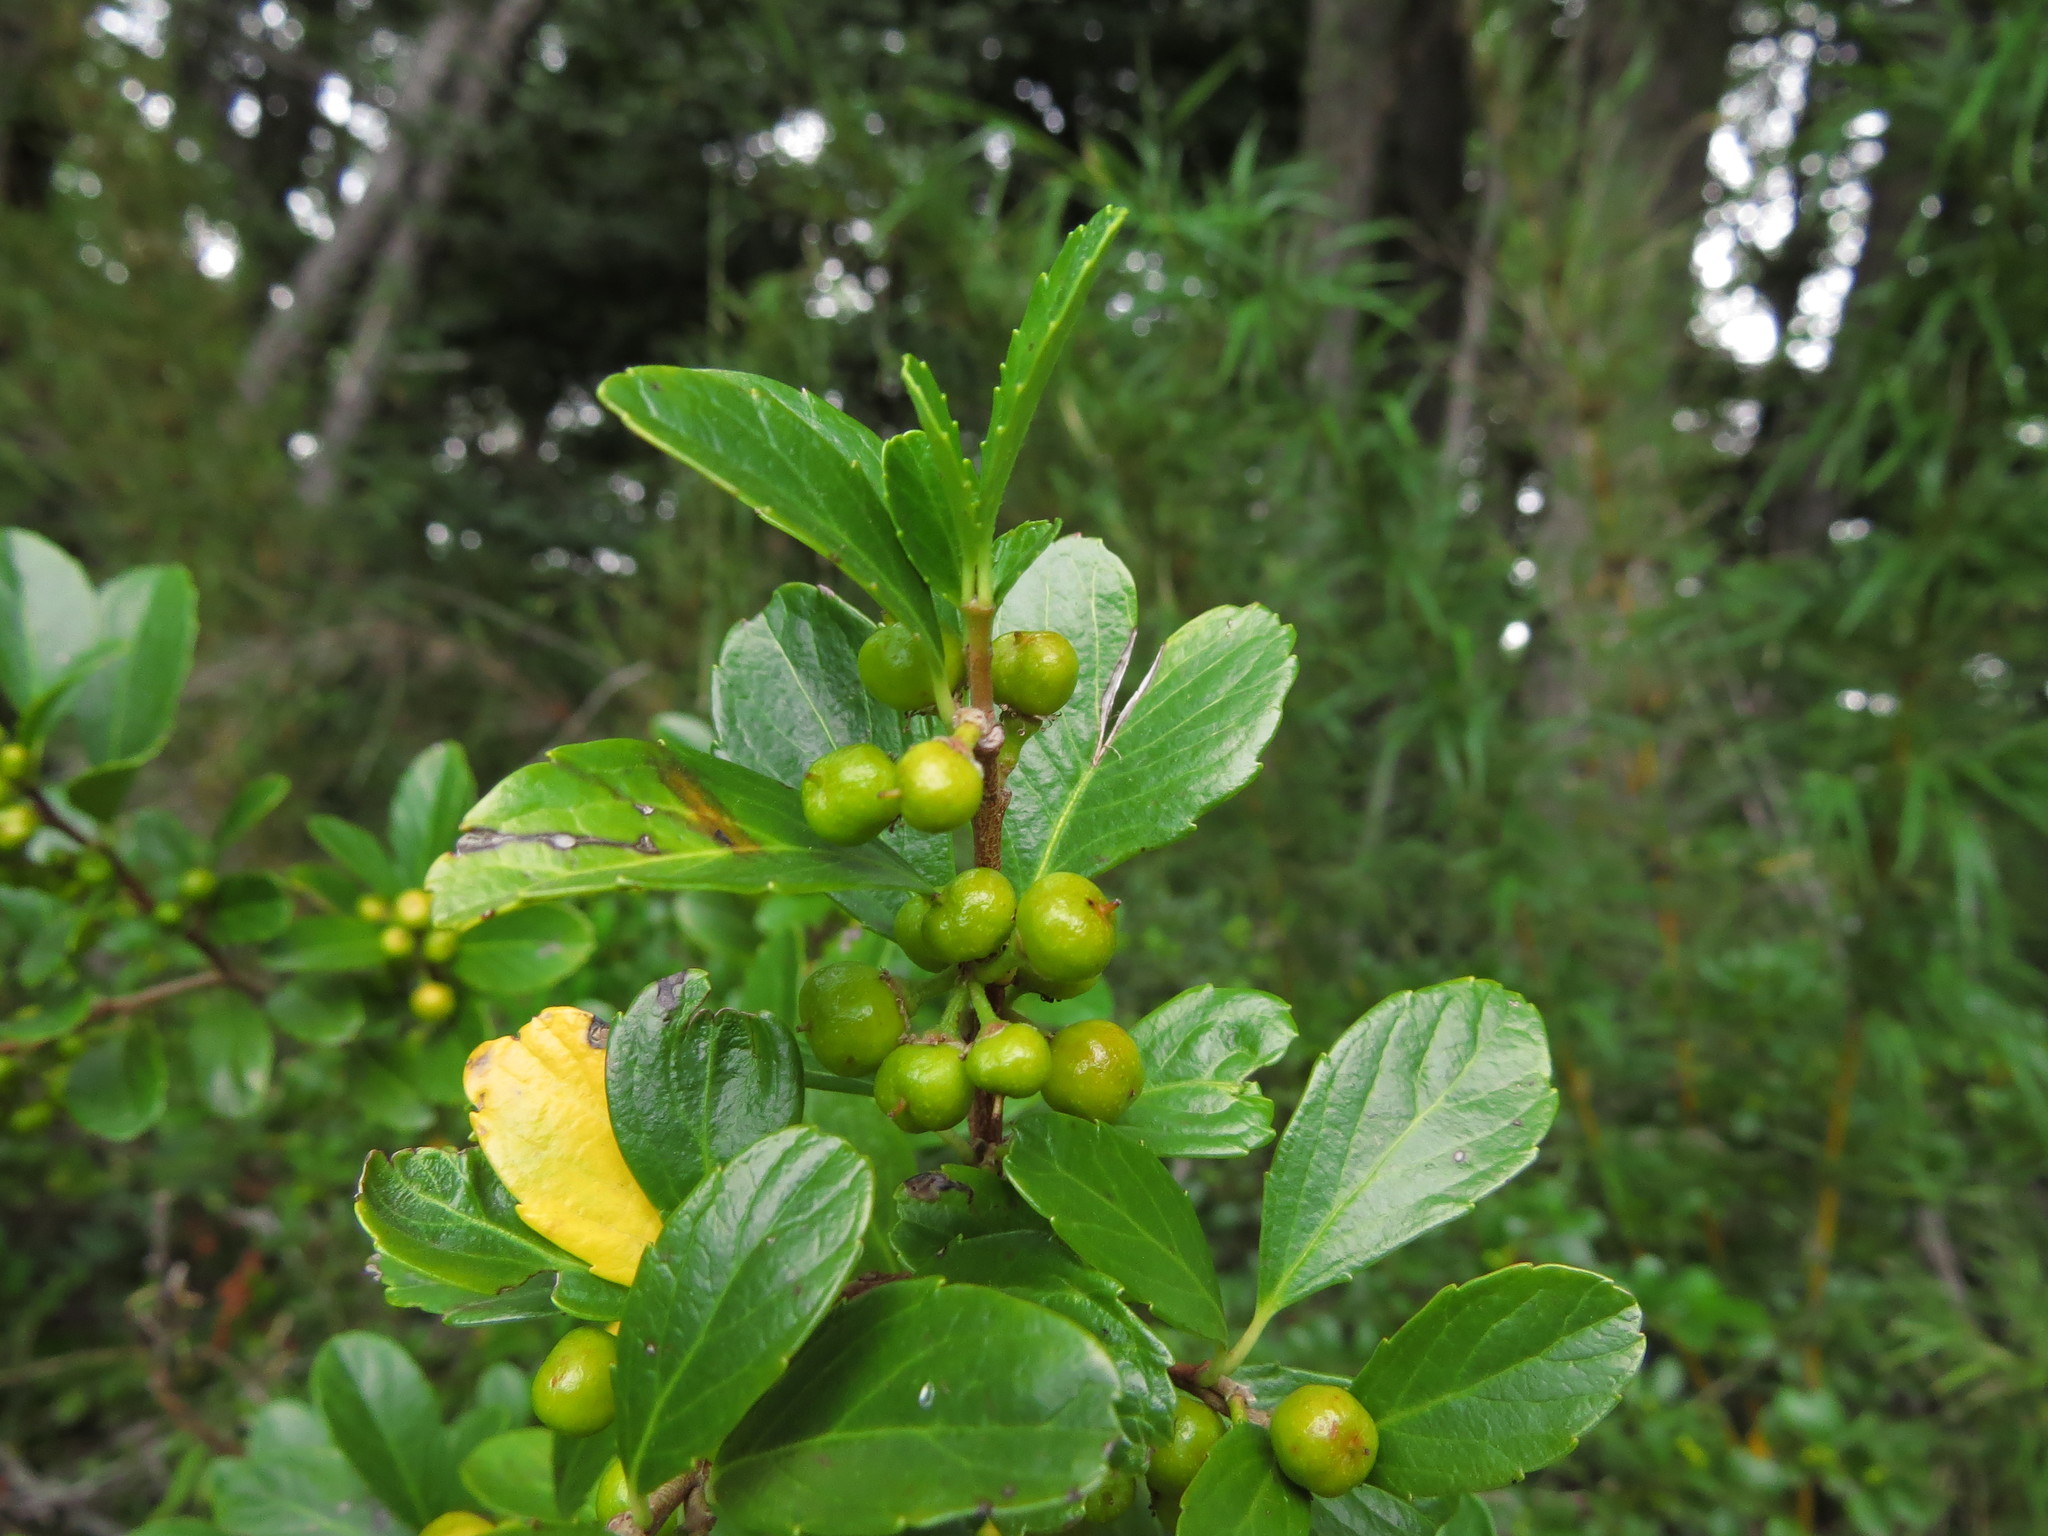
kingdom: Plantae
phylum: Tracheophyta
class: Magnoliopsida
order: Malpighiales
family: Salicaceae
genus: Azara
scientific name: Azara alpina
